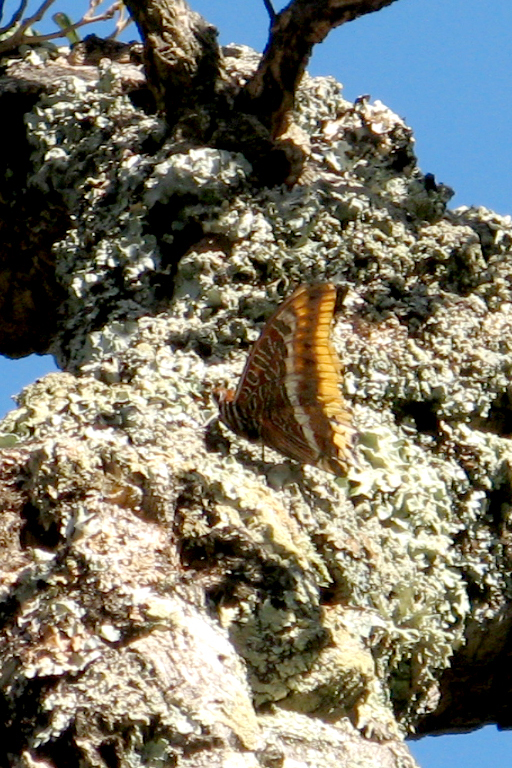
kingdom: Animalia
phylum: Arthropoda
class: Insecta
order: Lepidoptera
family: Nymphalidae
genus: Charaxes
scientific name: Charaxes jasius
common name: Two tailed pasha
